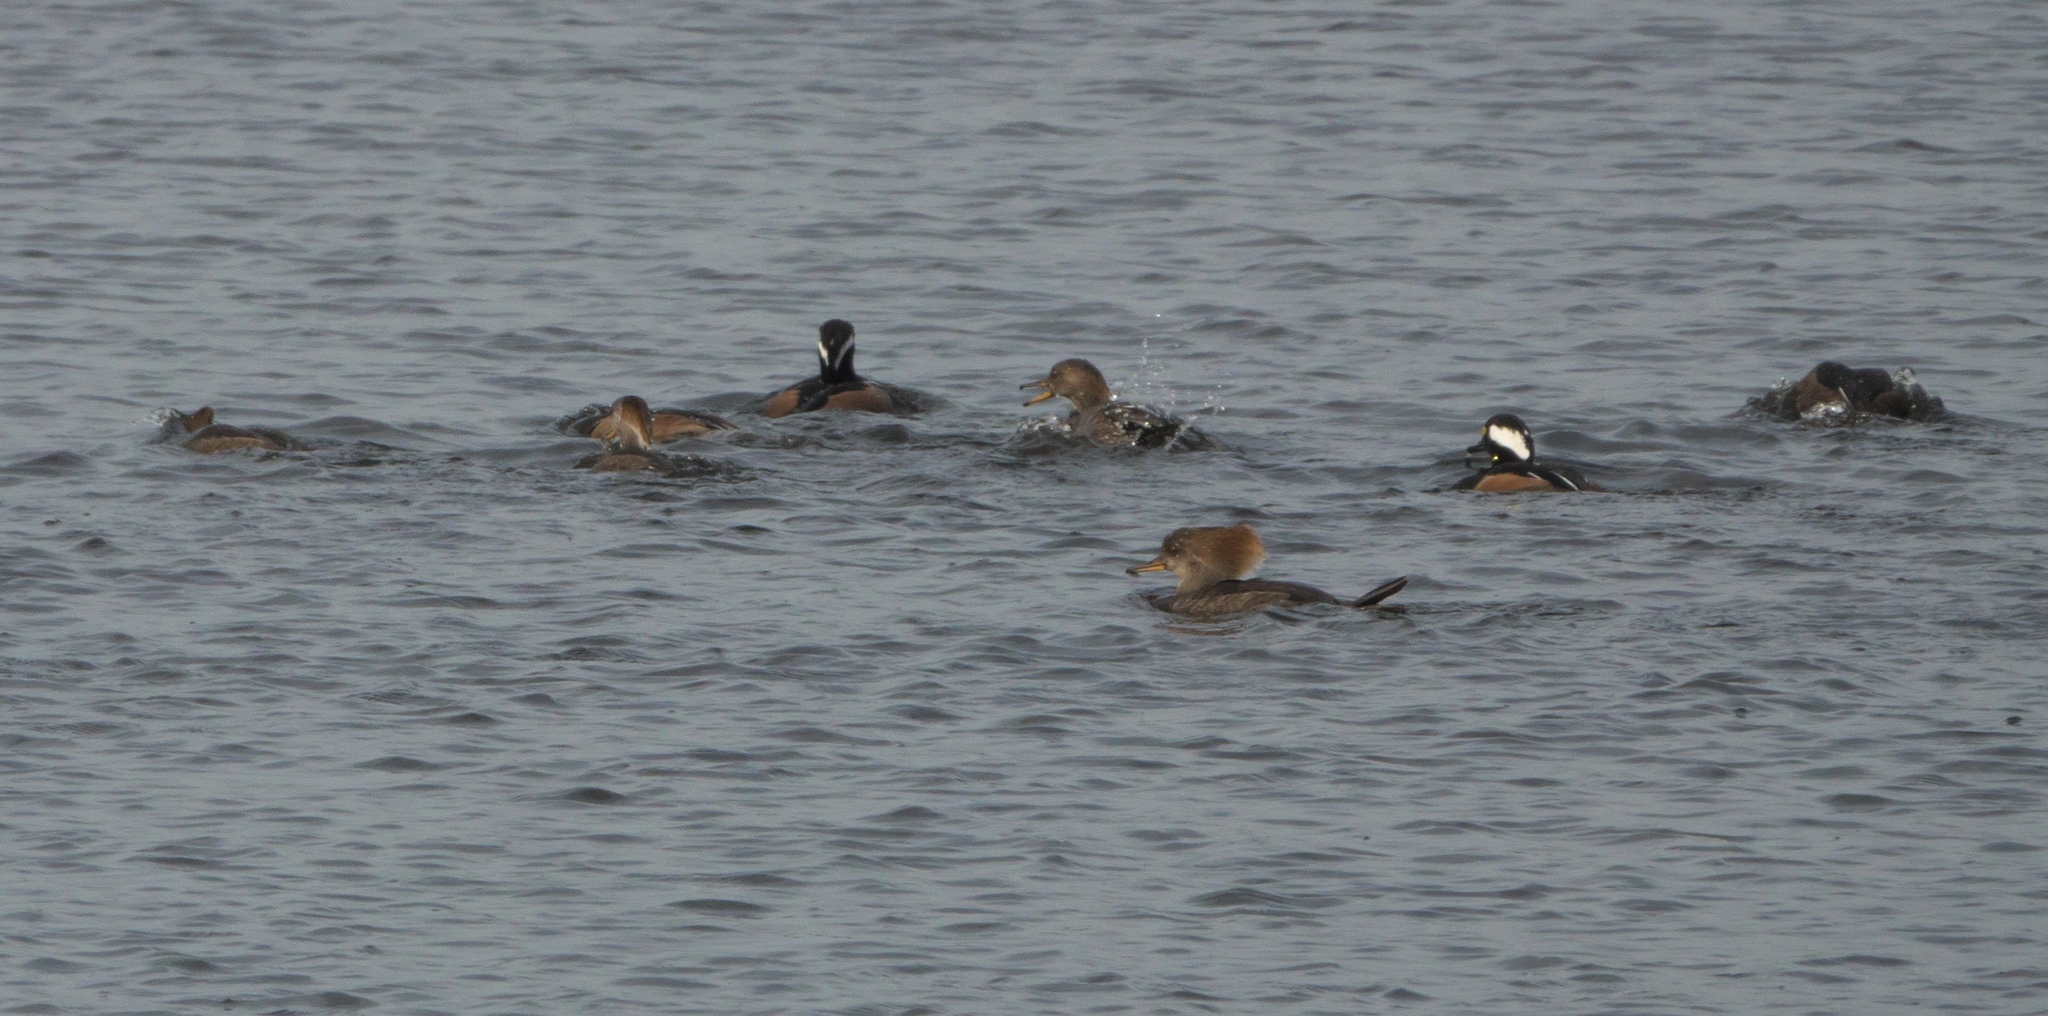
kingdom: Animalia
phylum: Chordata
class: Aves
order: Anseriformes
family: Anatidae
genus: Lophodytes
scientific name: Lophodytes cucullatus
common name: Hooded merganser
